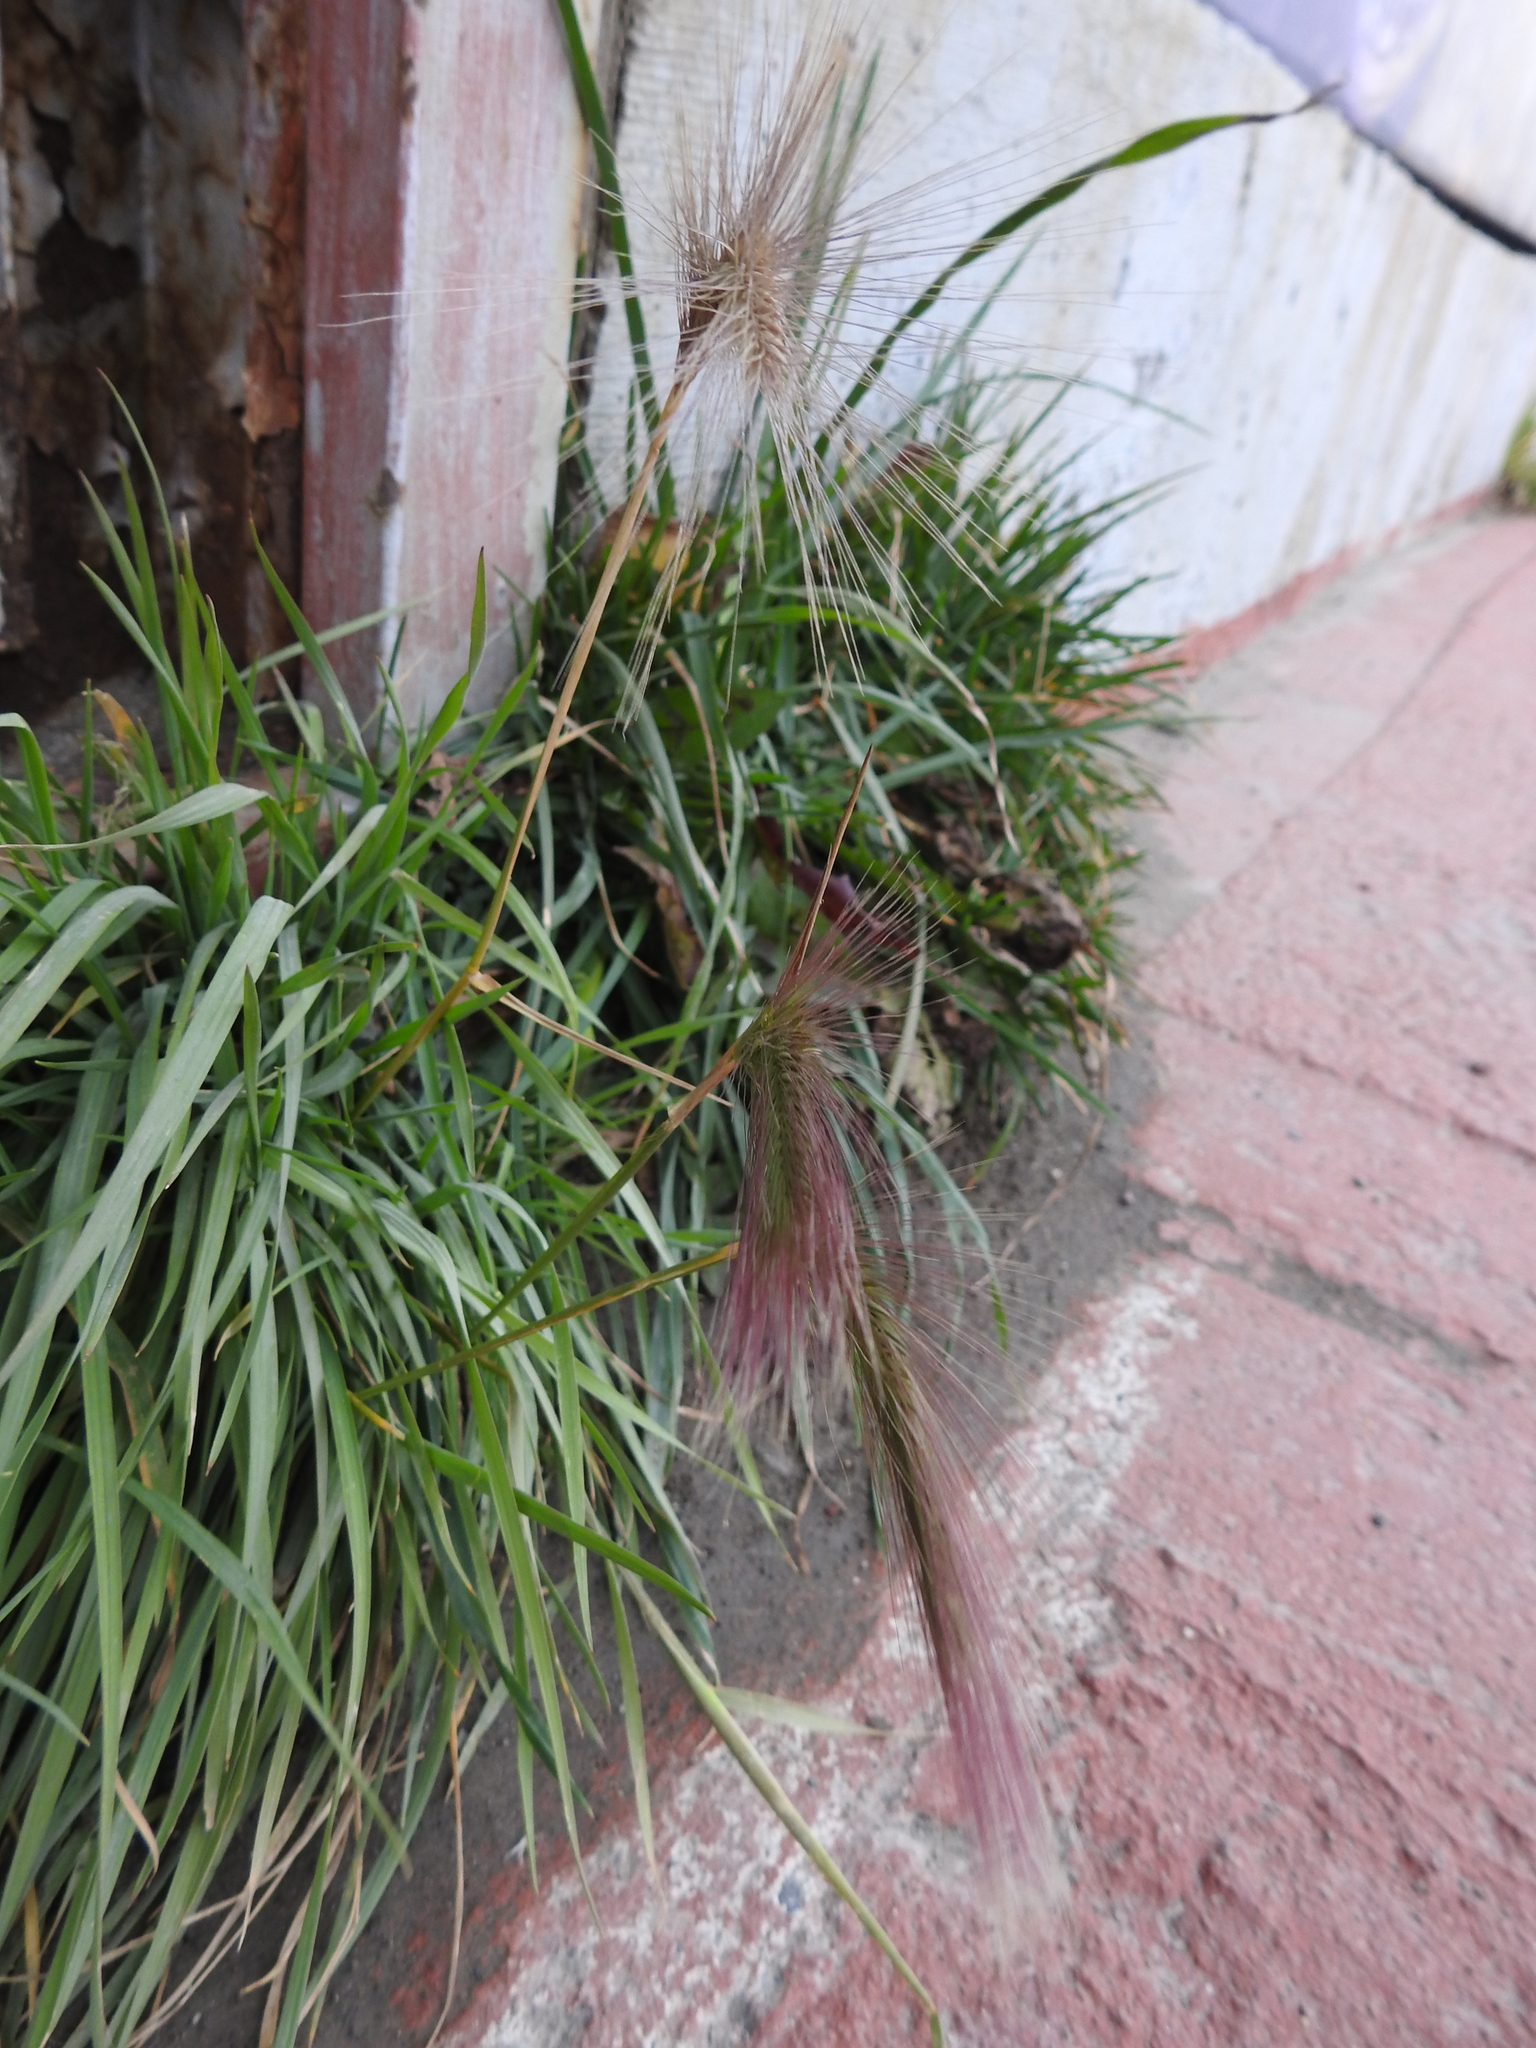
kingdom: Plantae
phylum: Tracheophyta
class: Liliopsida
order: Poales
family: Poaceae
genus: Hordeum
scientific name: Hordeum jubatum
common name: Foxtail barley
